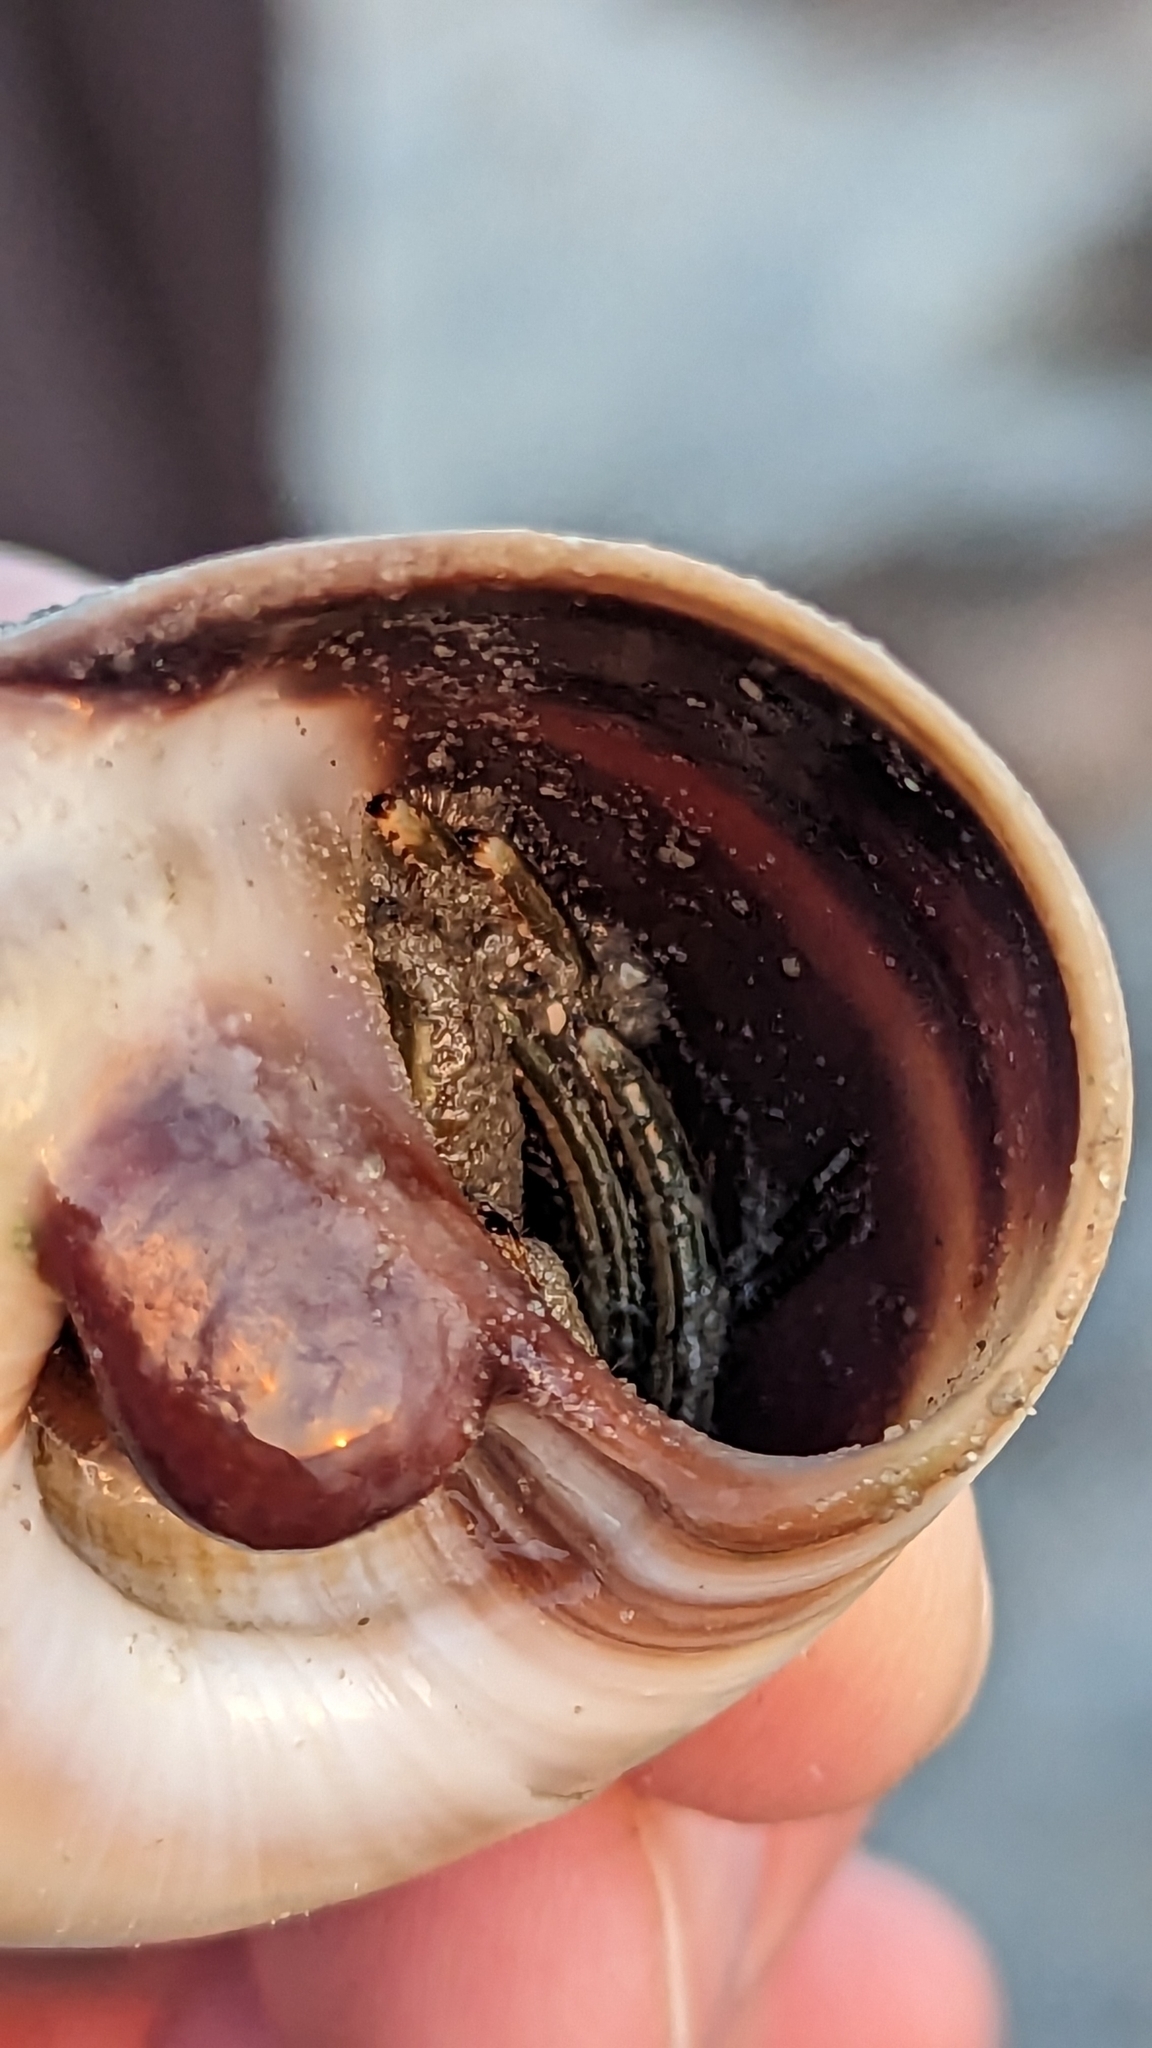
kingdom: Animalia
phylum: Arthropoda
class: Malacostraca
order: Decapoda
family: Diogenidae
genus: Clibanarius
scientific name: Clibanarius vittatus
